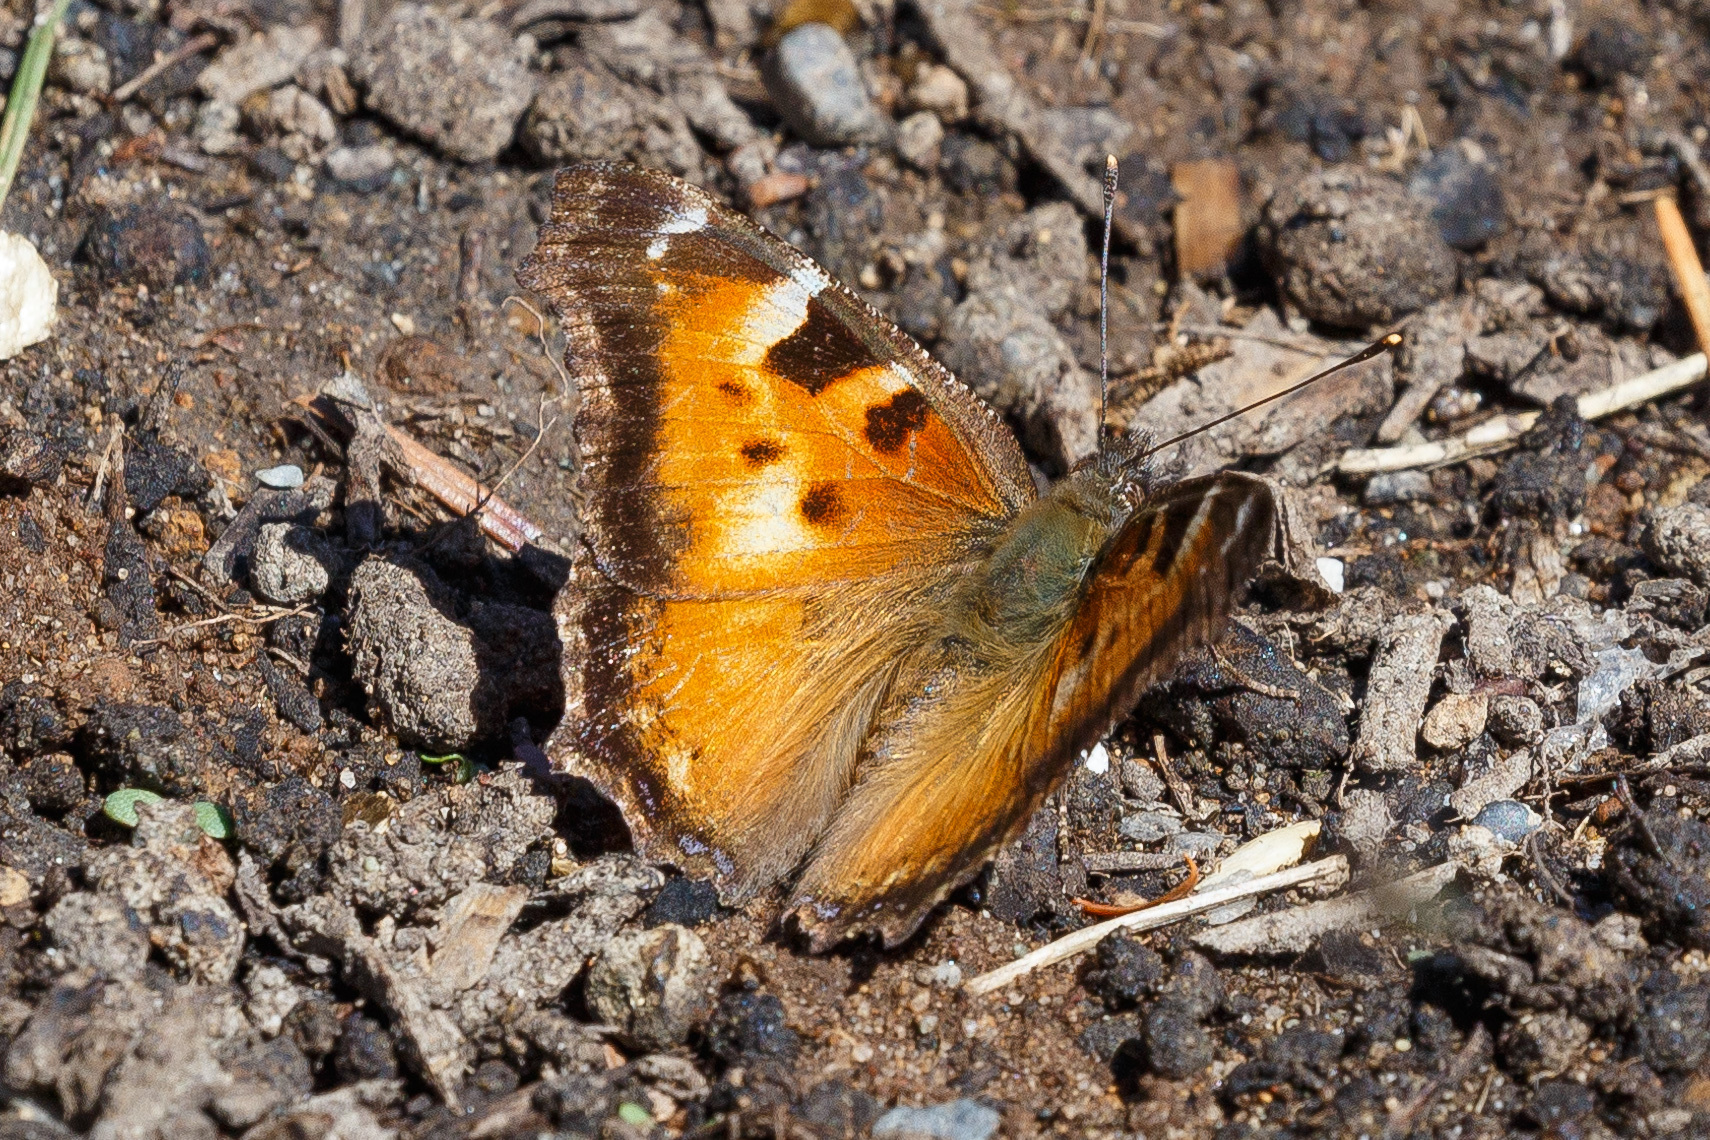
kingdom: Animalia
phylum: Arthropoda
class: Insecta
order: Lepidoptera
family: Nymphalidae
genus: Nymphalis
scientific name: Nymphalis californica
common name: California tortoiseshell
